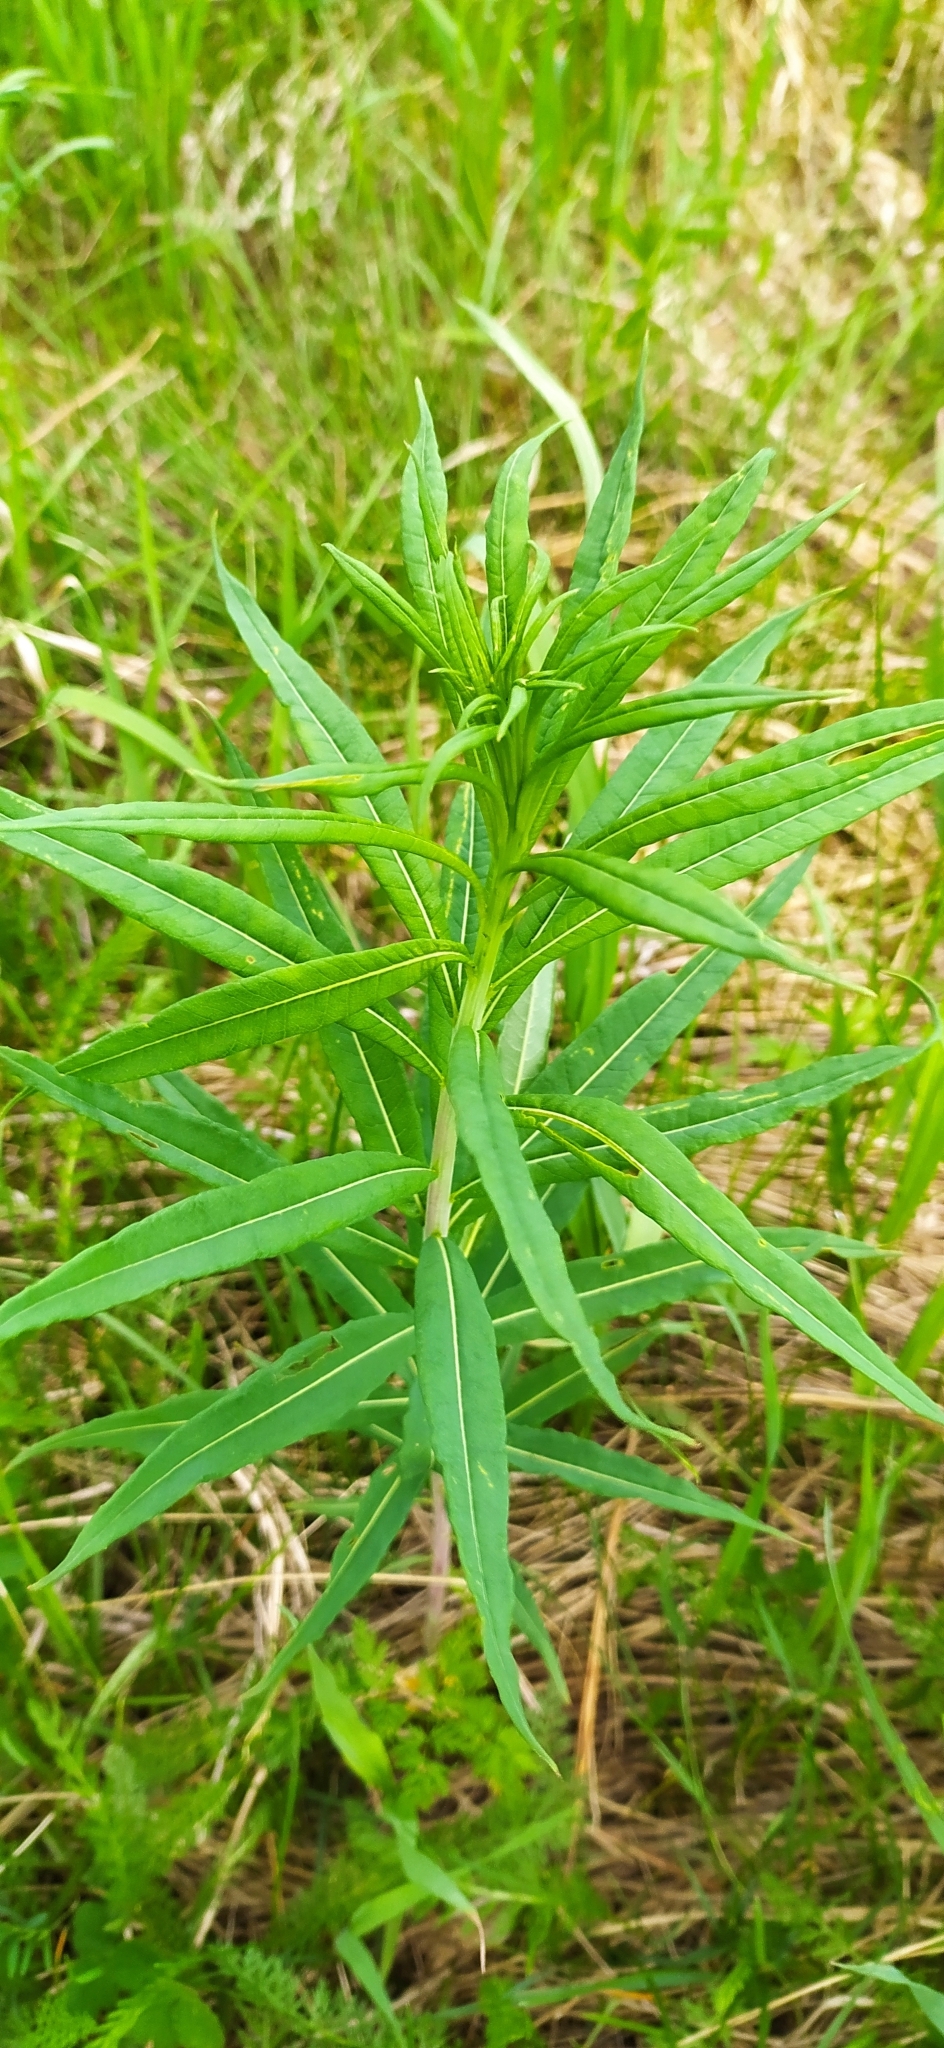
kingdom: Plantae
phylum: Tracheophyta
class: Magnoliopsida
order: Myrtales
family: Onagraceae
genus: Chamaenerion
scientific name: Chamaenerion angustifolium
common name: Fireweed
